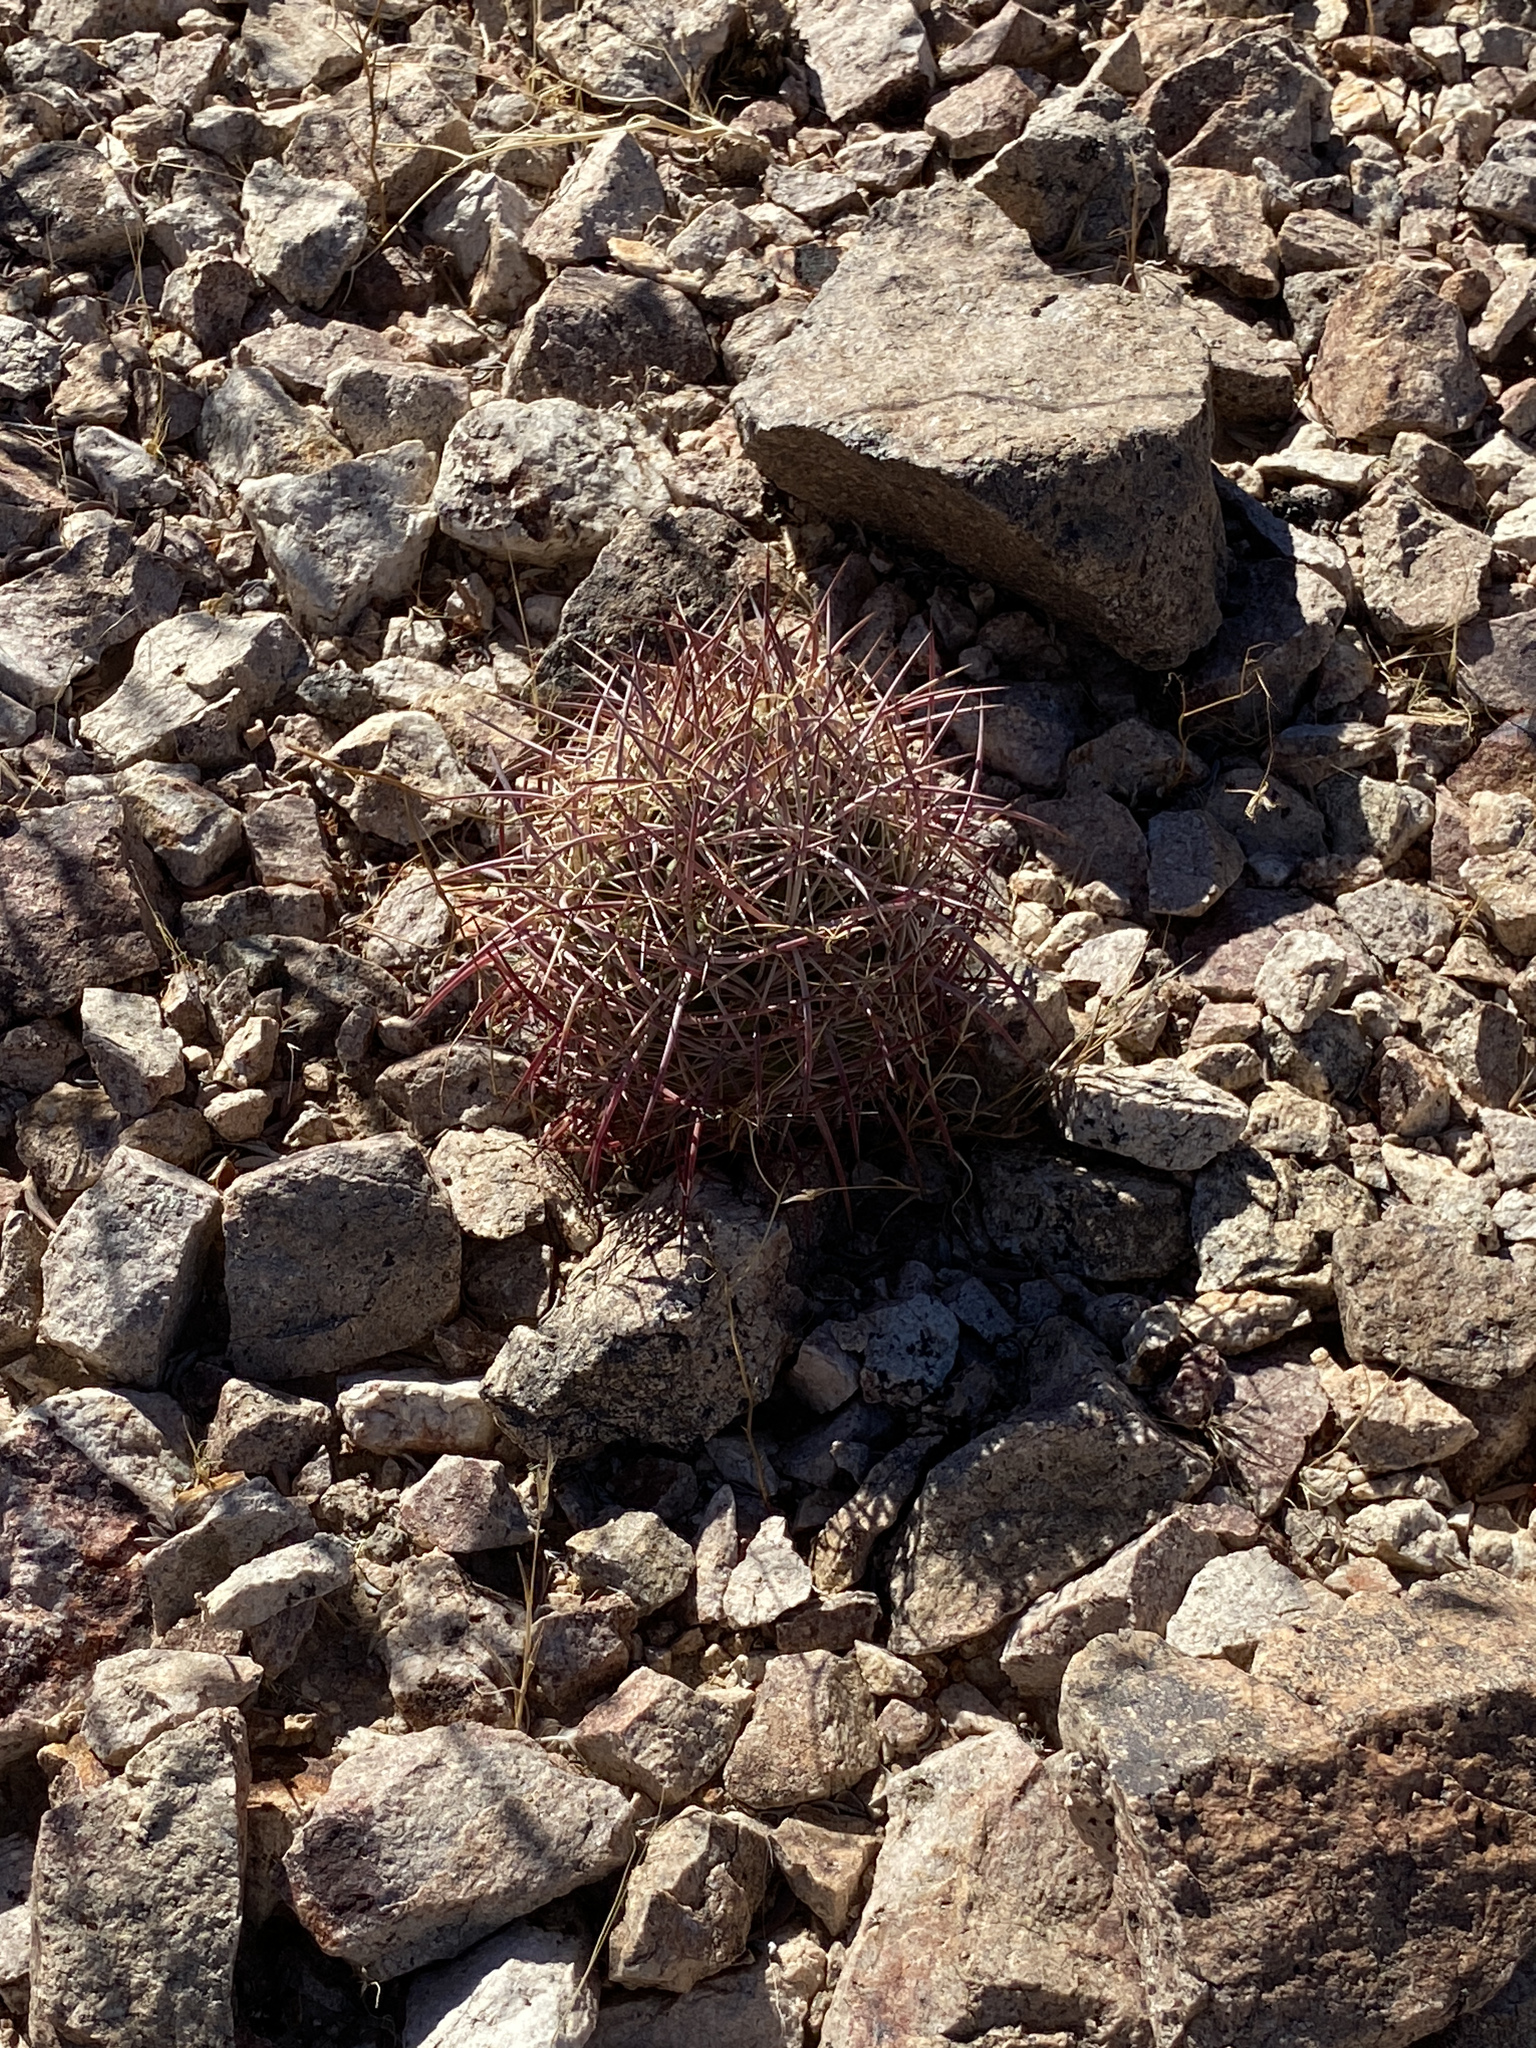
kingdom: Plantae
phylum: Tracheophyta
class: Magnoliopsida
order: Caryophyllales
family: Cactaceae
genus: Sclerocactus
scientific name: Sclerocactus johnsonii
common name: Eight-spine fishhook cactus
